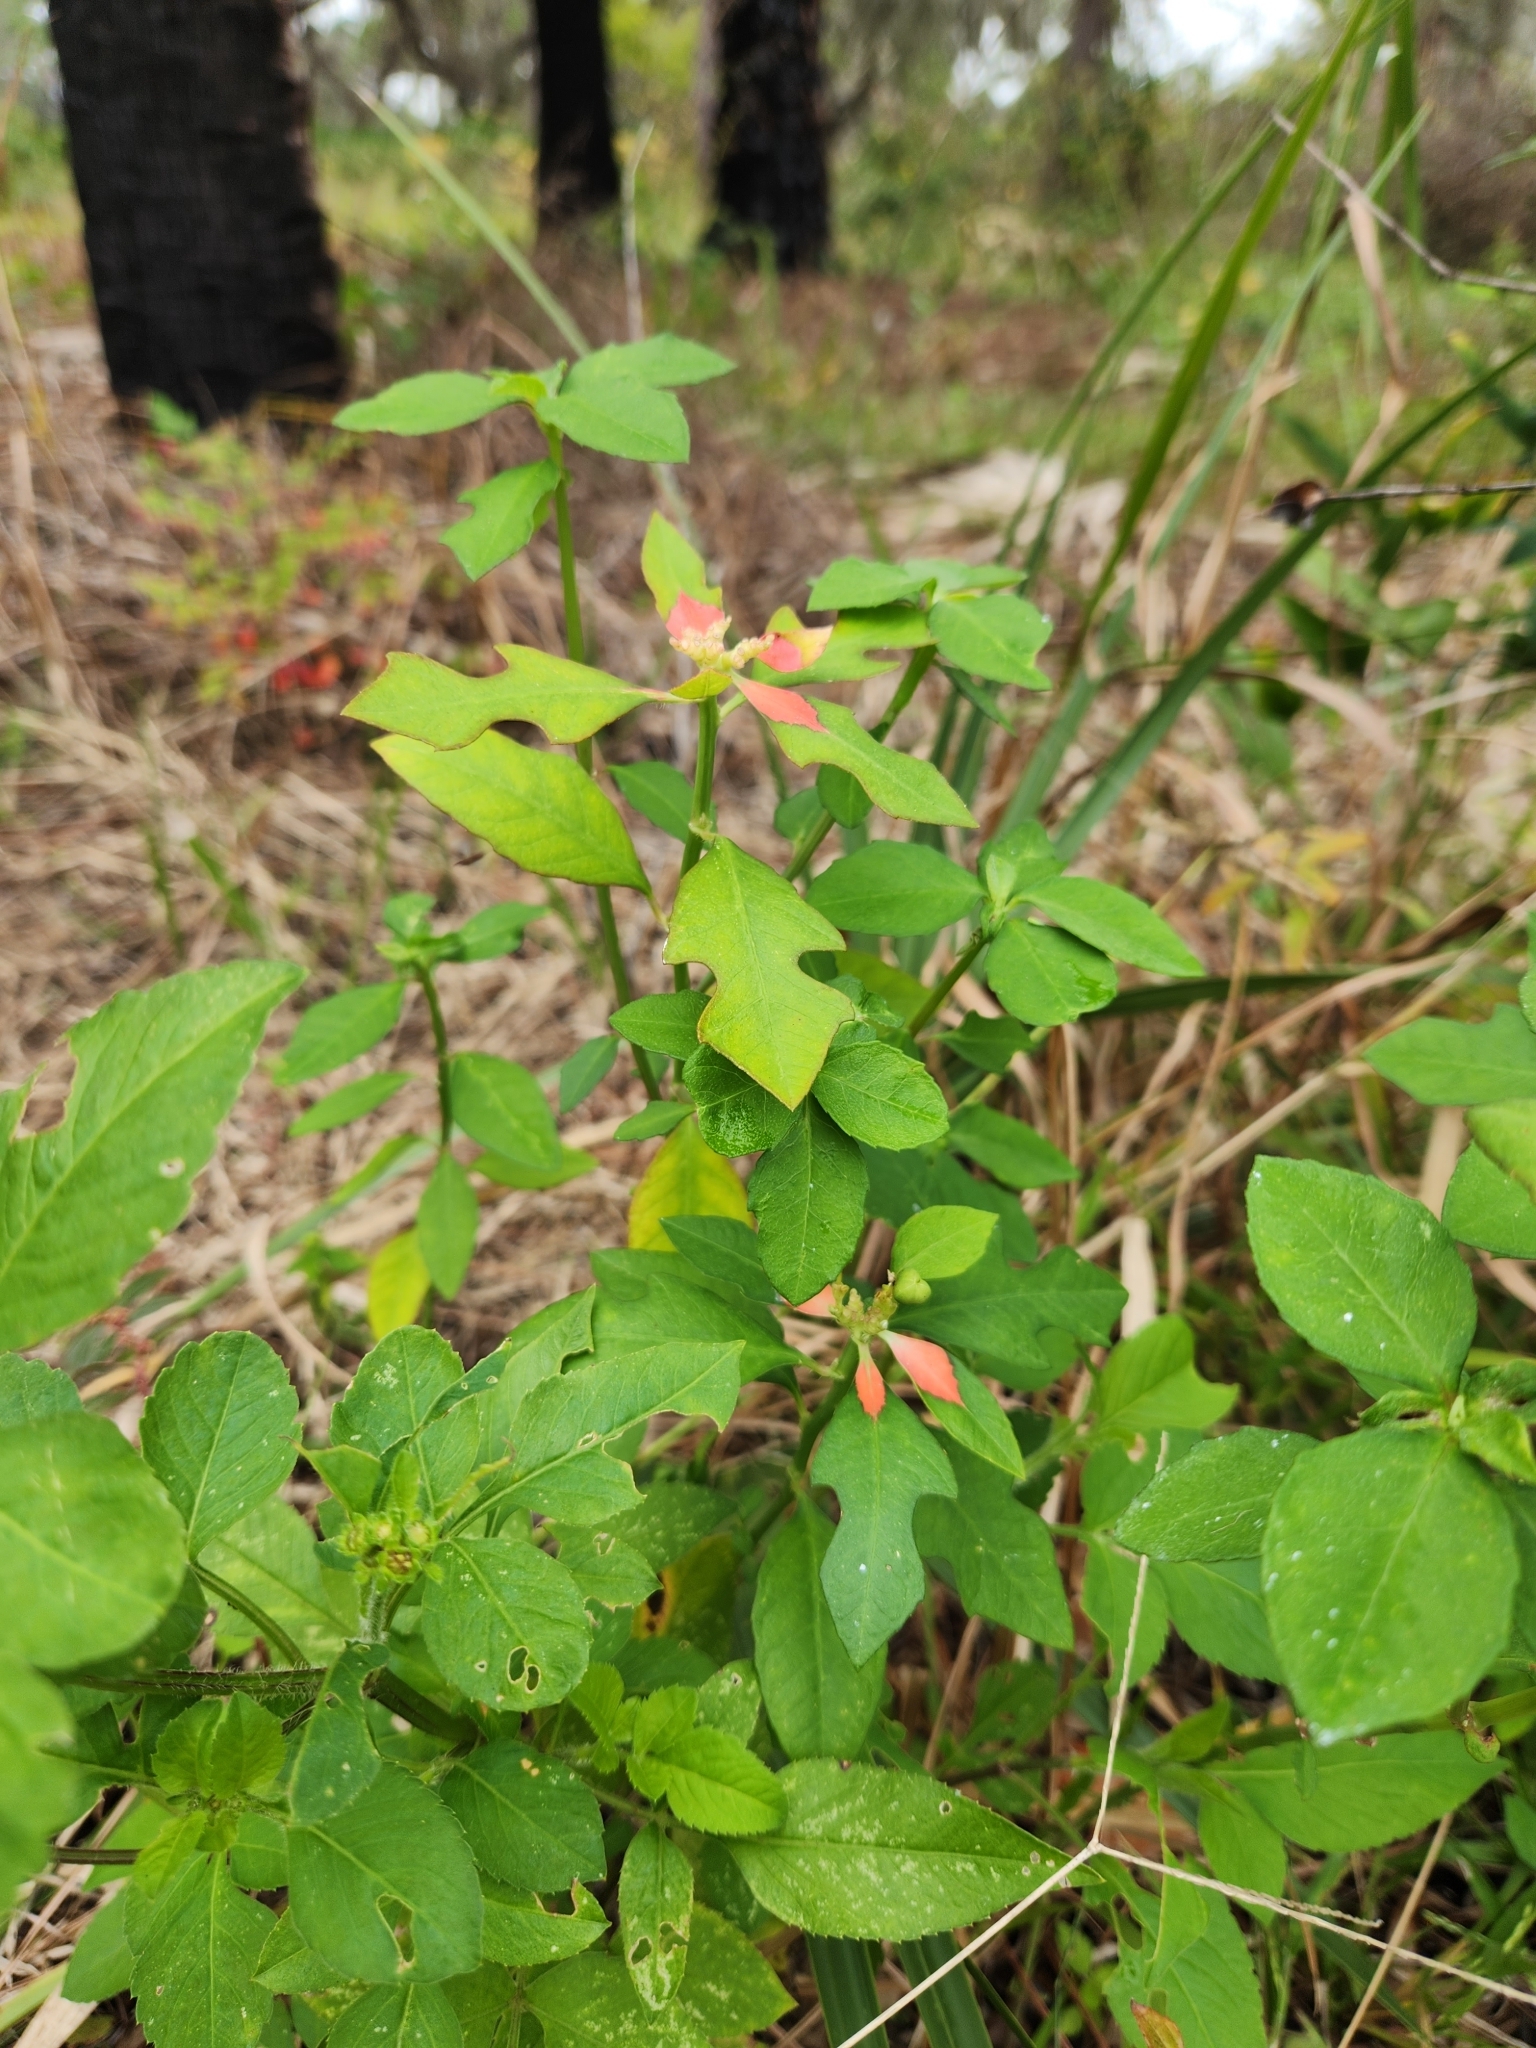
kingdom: Plantae
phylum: Tracheophyta
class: Magnoliopsida
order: Malpighiales
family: Euphorbiaceae
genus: Euphorbia
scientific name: Euphorbia heterophylla
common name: Mexican fireplant
